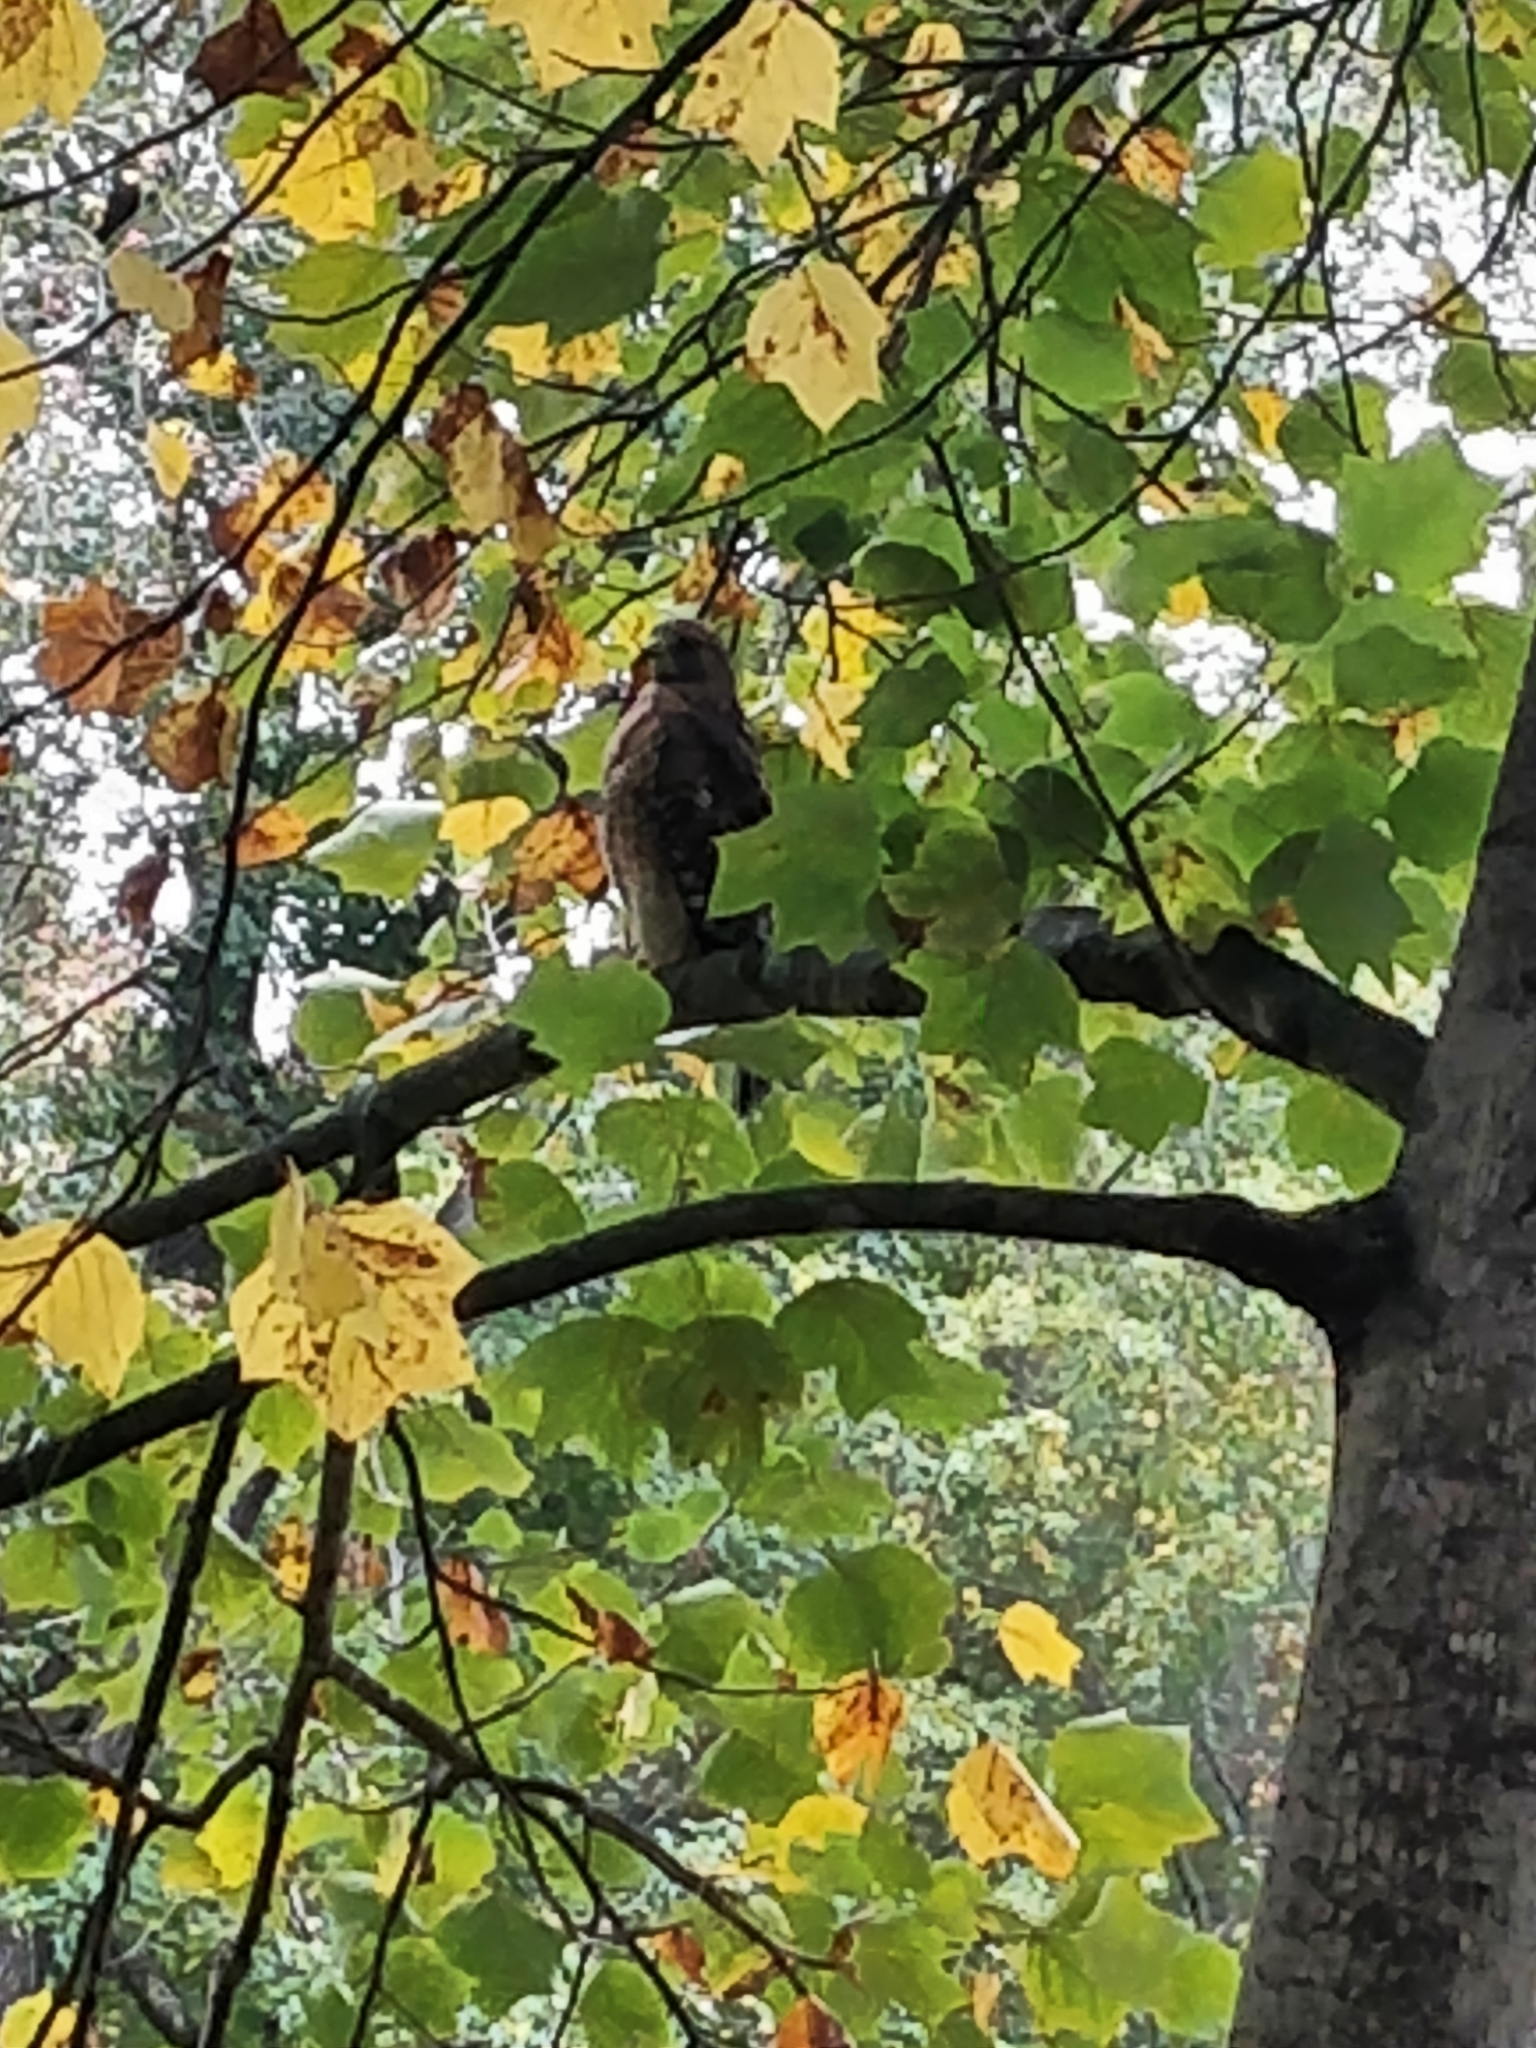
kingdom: Animalia
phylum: Chordata
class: Aves
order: Accipitriformes
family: Accipitridae
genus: Buteo
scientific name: Buteo lineatus
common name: Red-shouldered hawk
